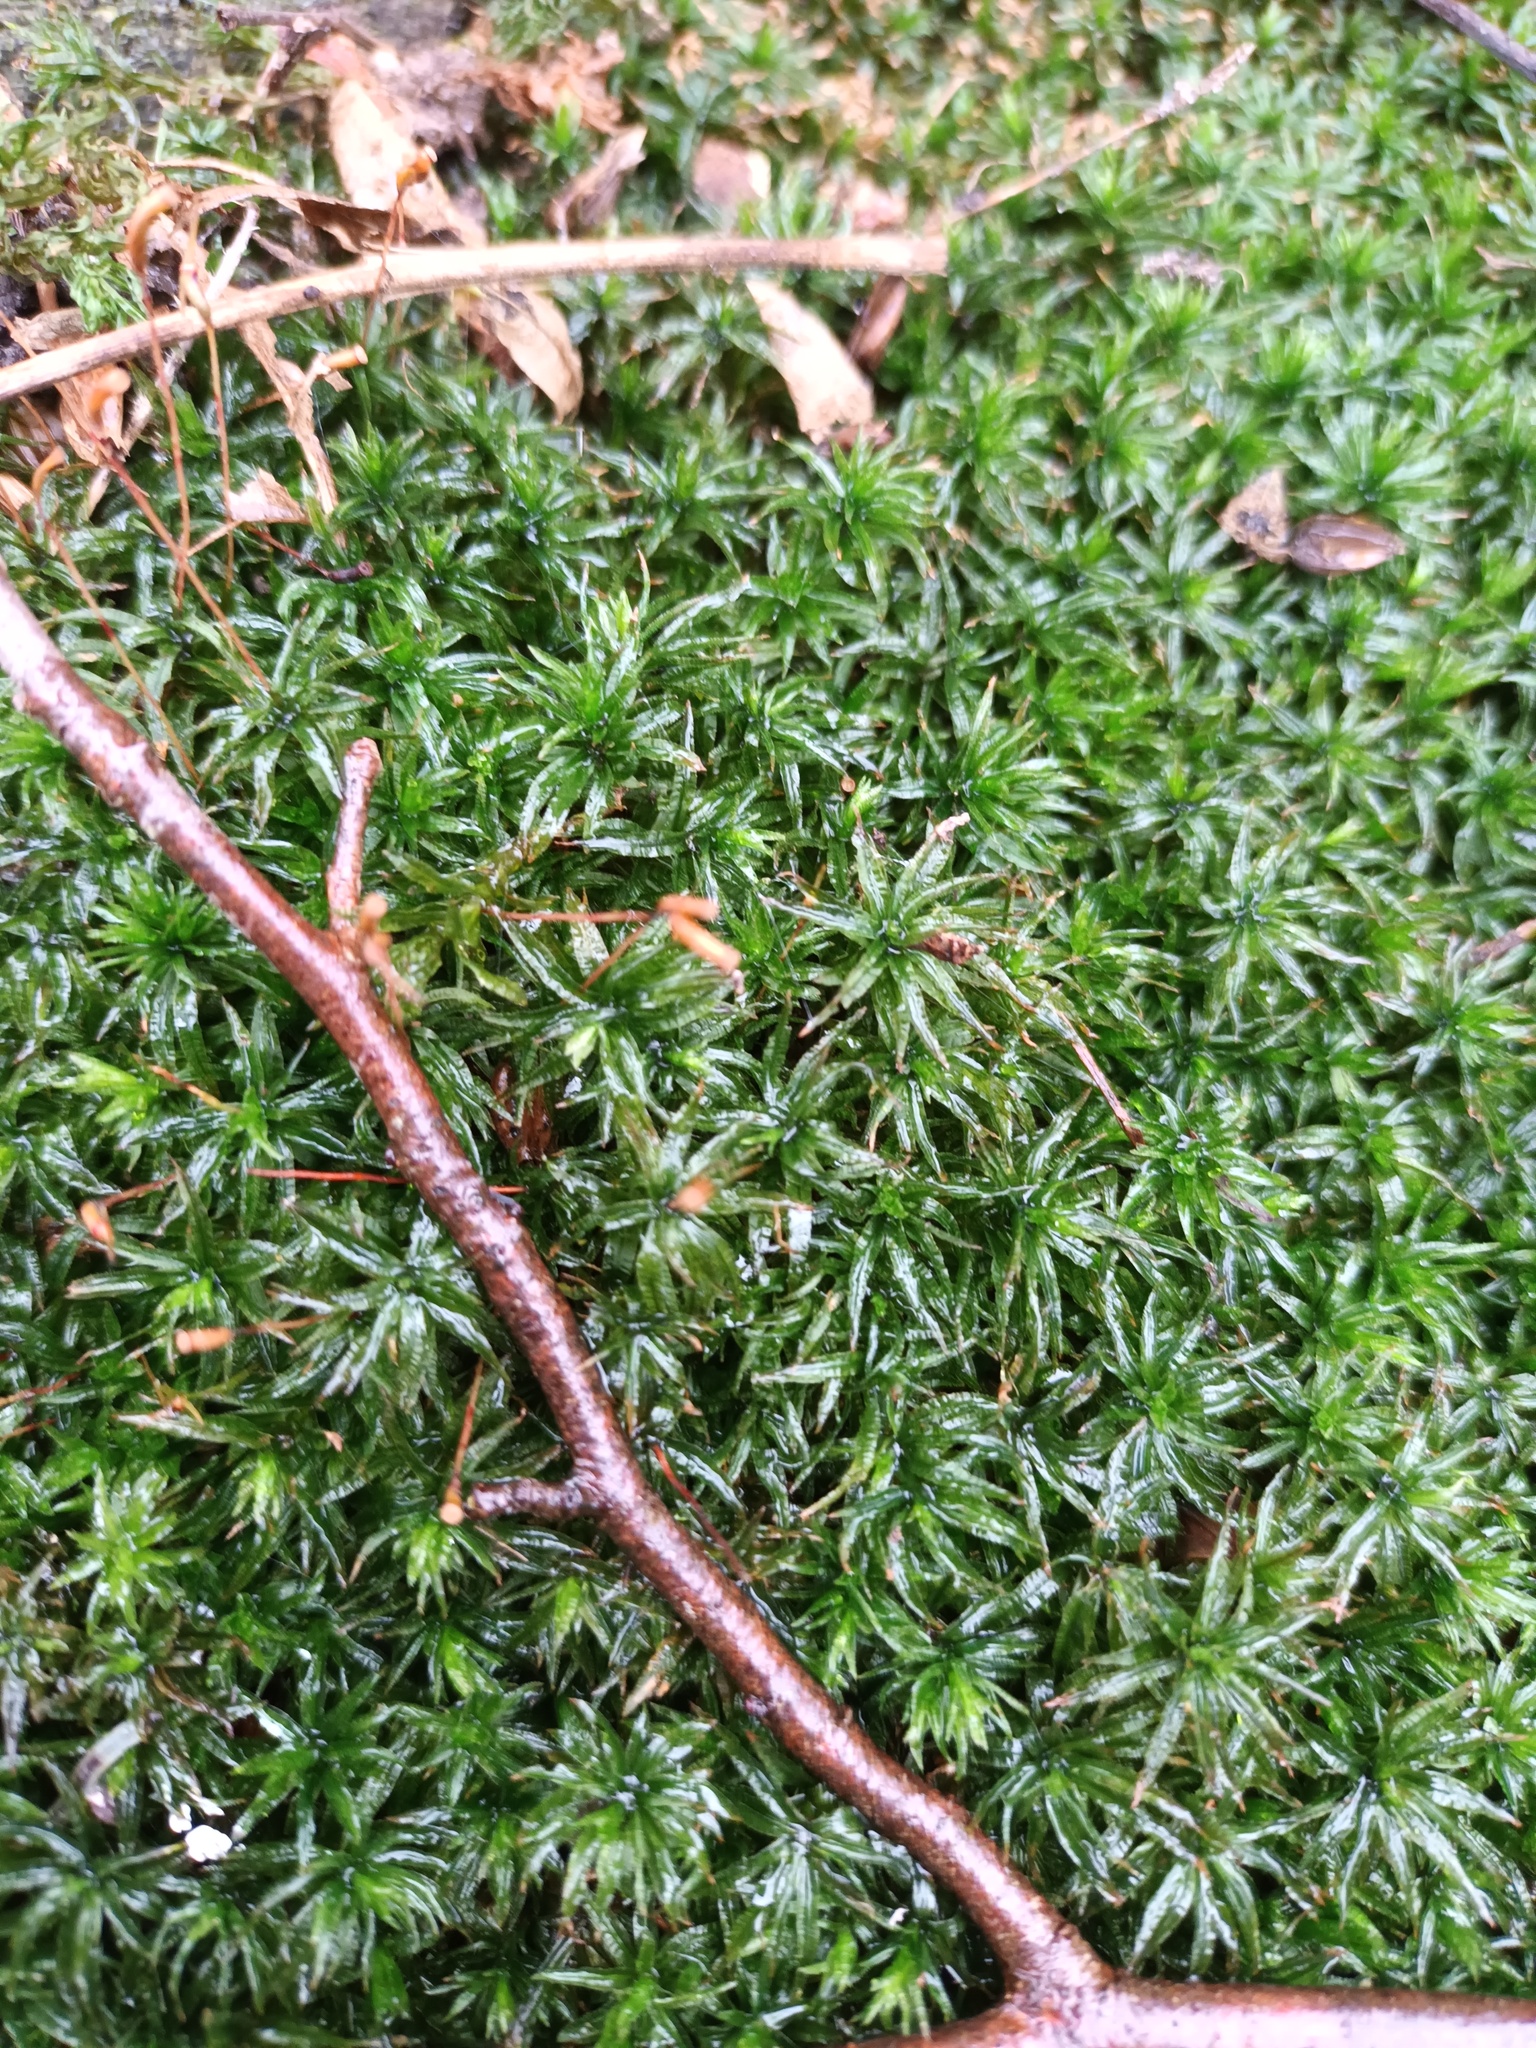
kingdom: Plantae
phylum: Bryophyta
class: Polytrichopsida
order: Polytrichales
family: Polytrichaceae
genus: Atrichum
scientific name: Atrichum undulatum
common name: Common smoothcap
